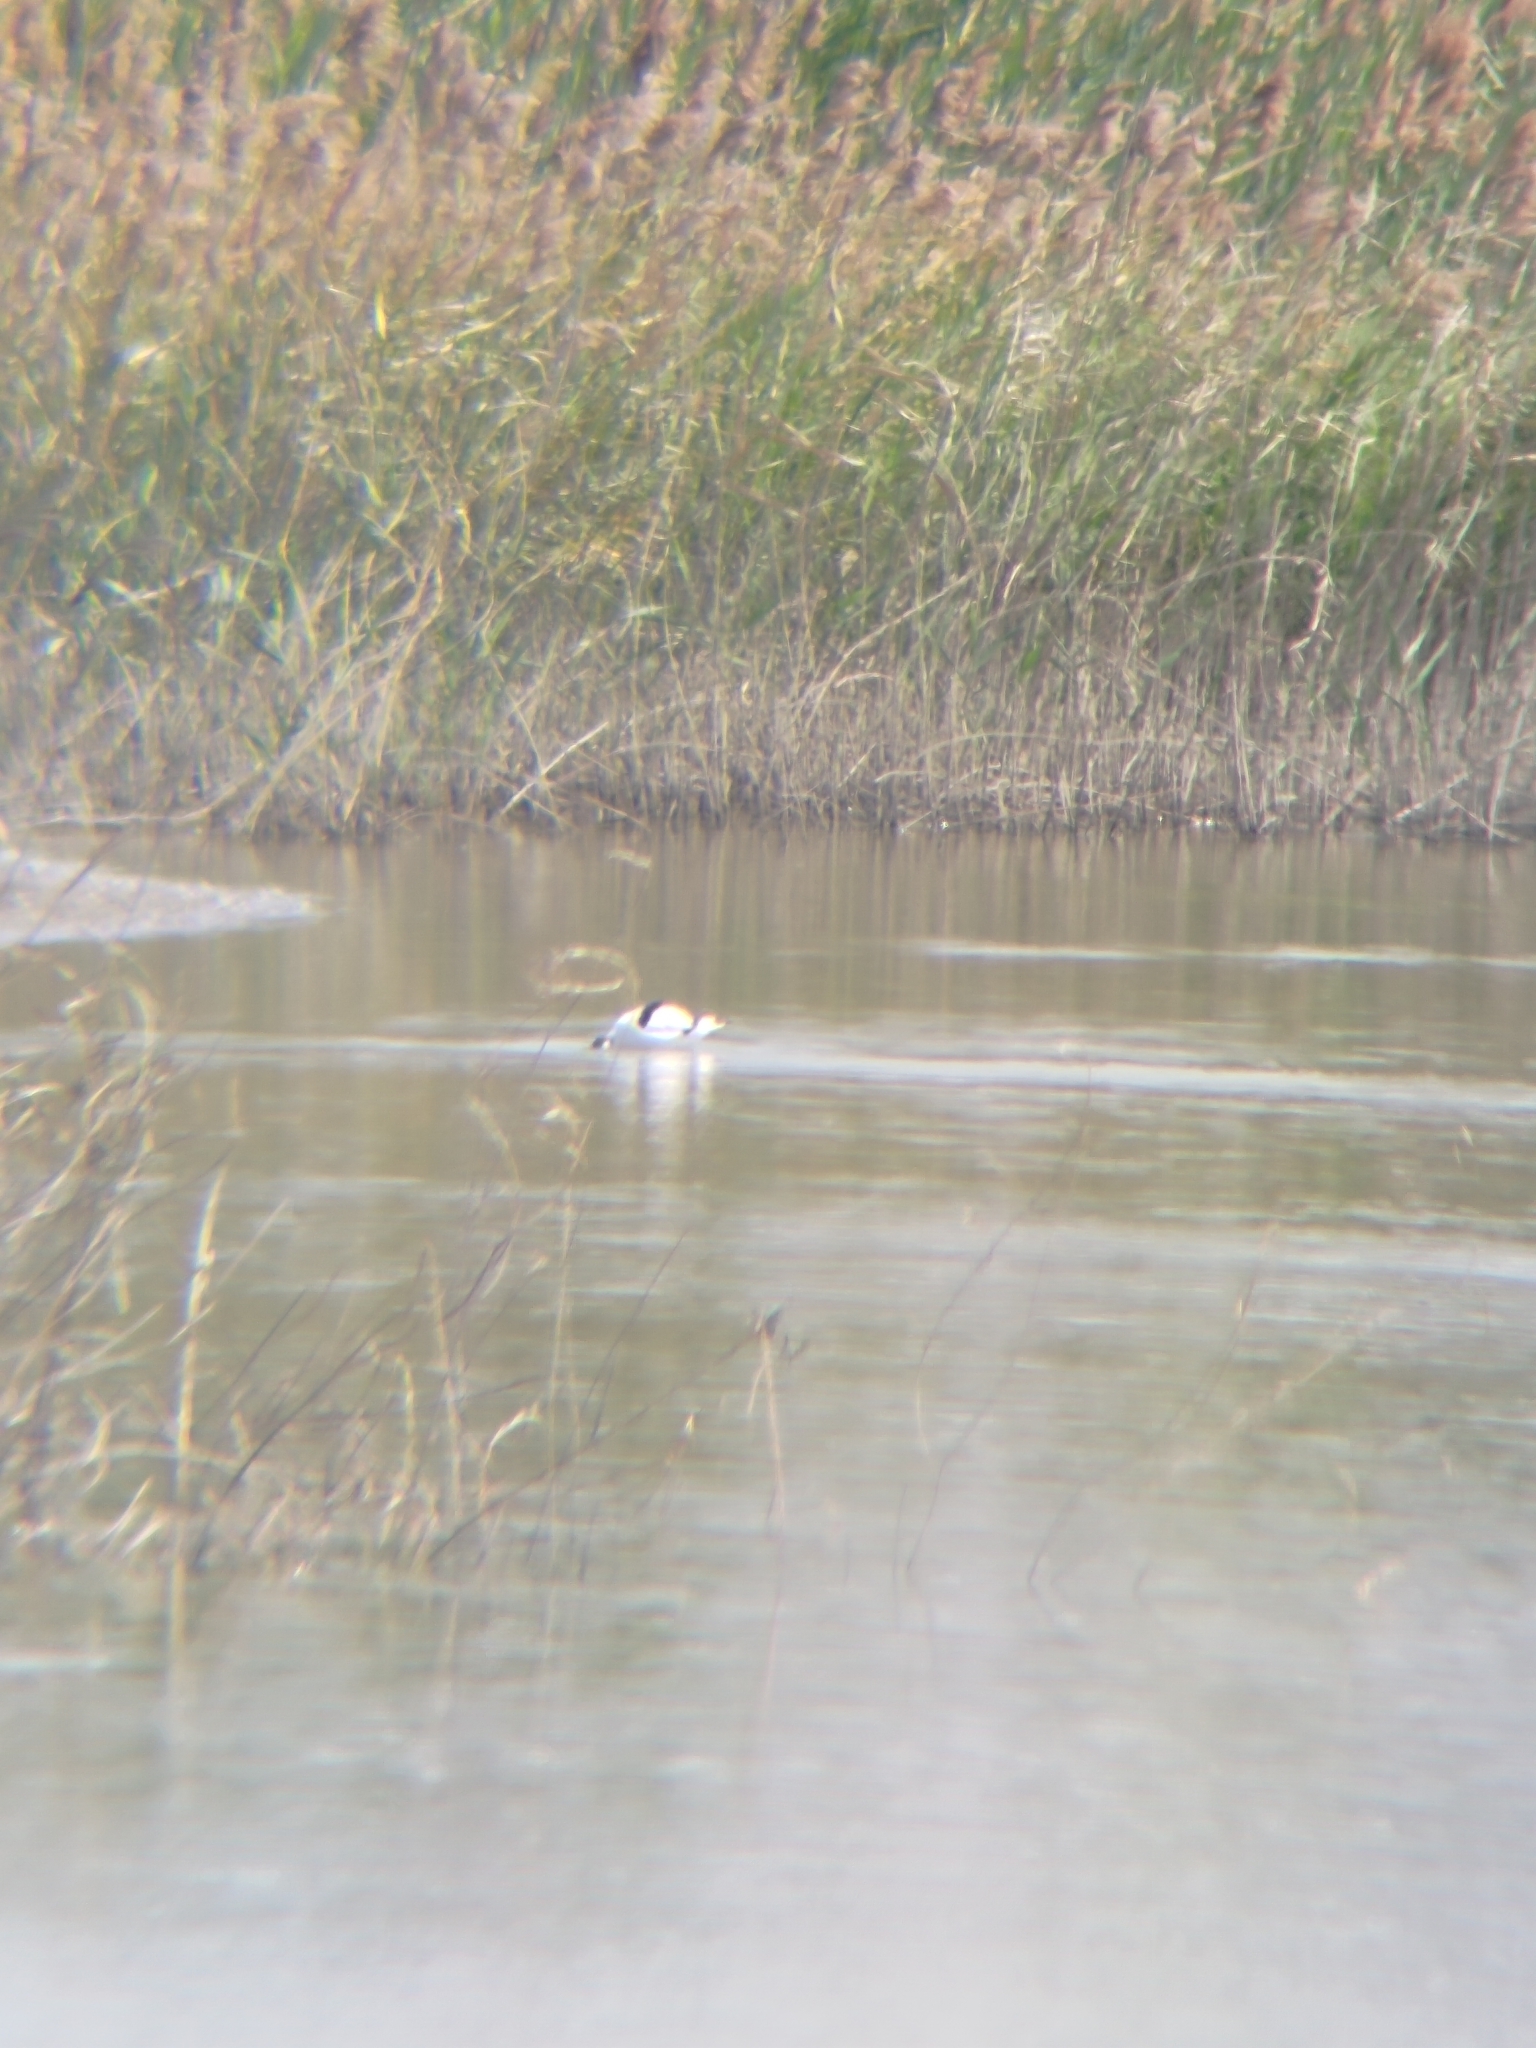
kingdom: Animalia
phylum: Chordata
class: Aves
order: Charadriiformes
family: Recurvirostridae
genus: Recurvirostra
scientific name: Recurvirostra avosetta
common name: Pied avocet
